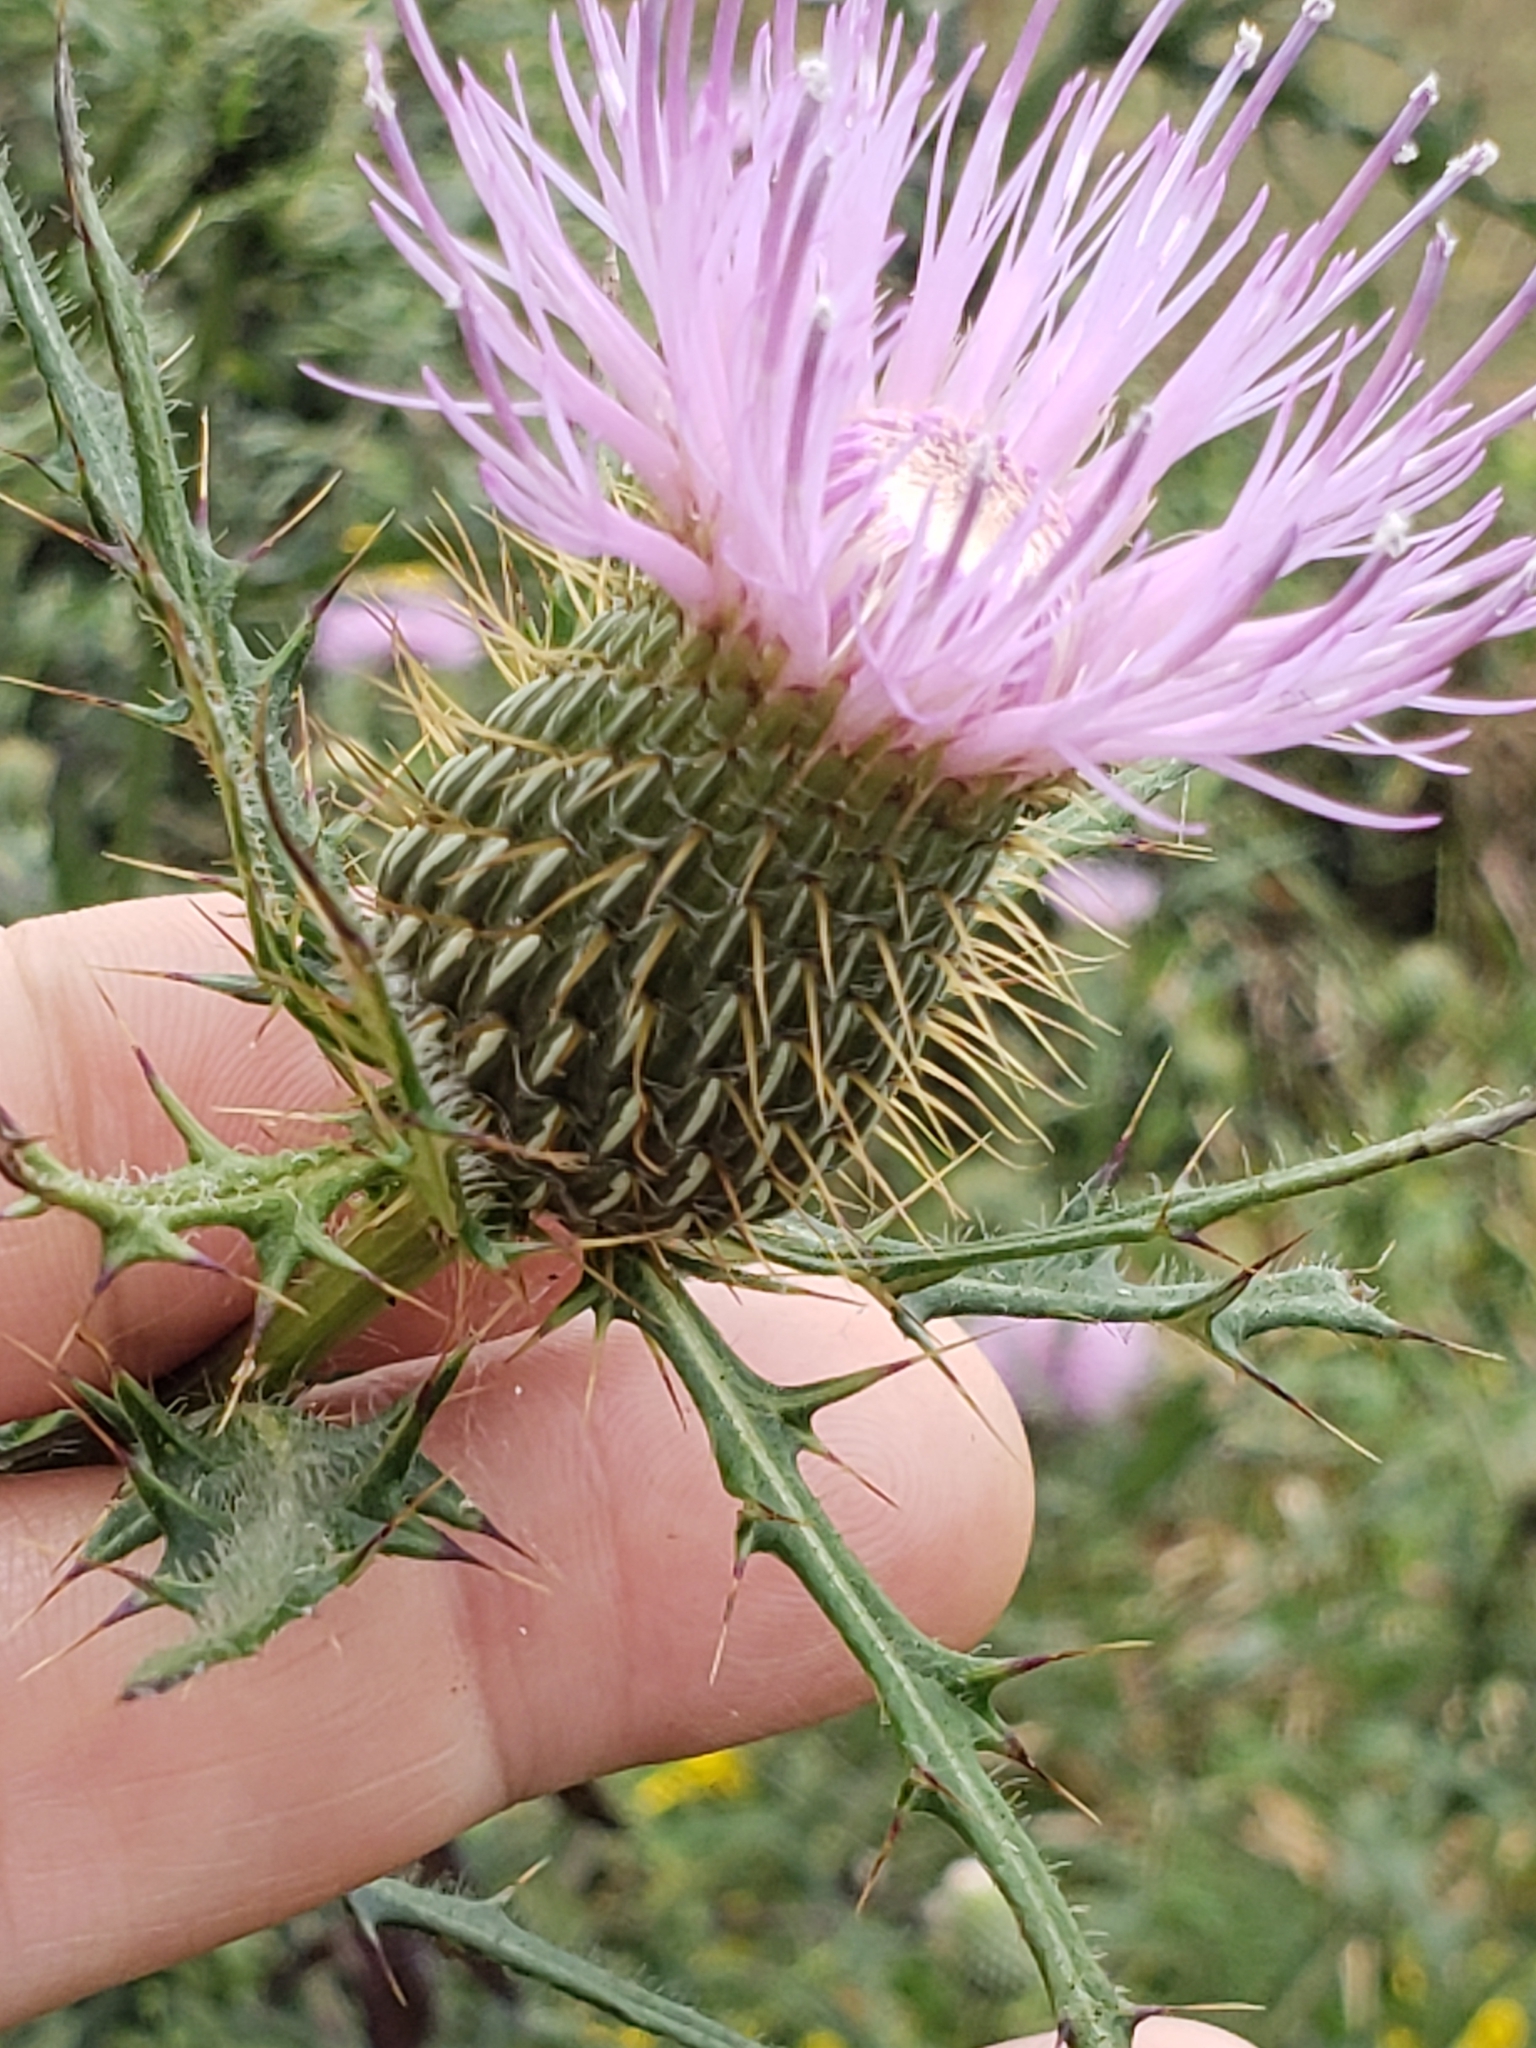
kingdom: Plantae
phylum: Tracheophyta
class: Magnoliopsida
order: Asterales
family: Asteraceae
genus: Cirsium
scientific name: Cirsium discolor
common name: Field thistle
